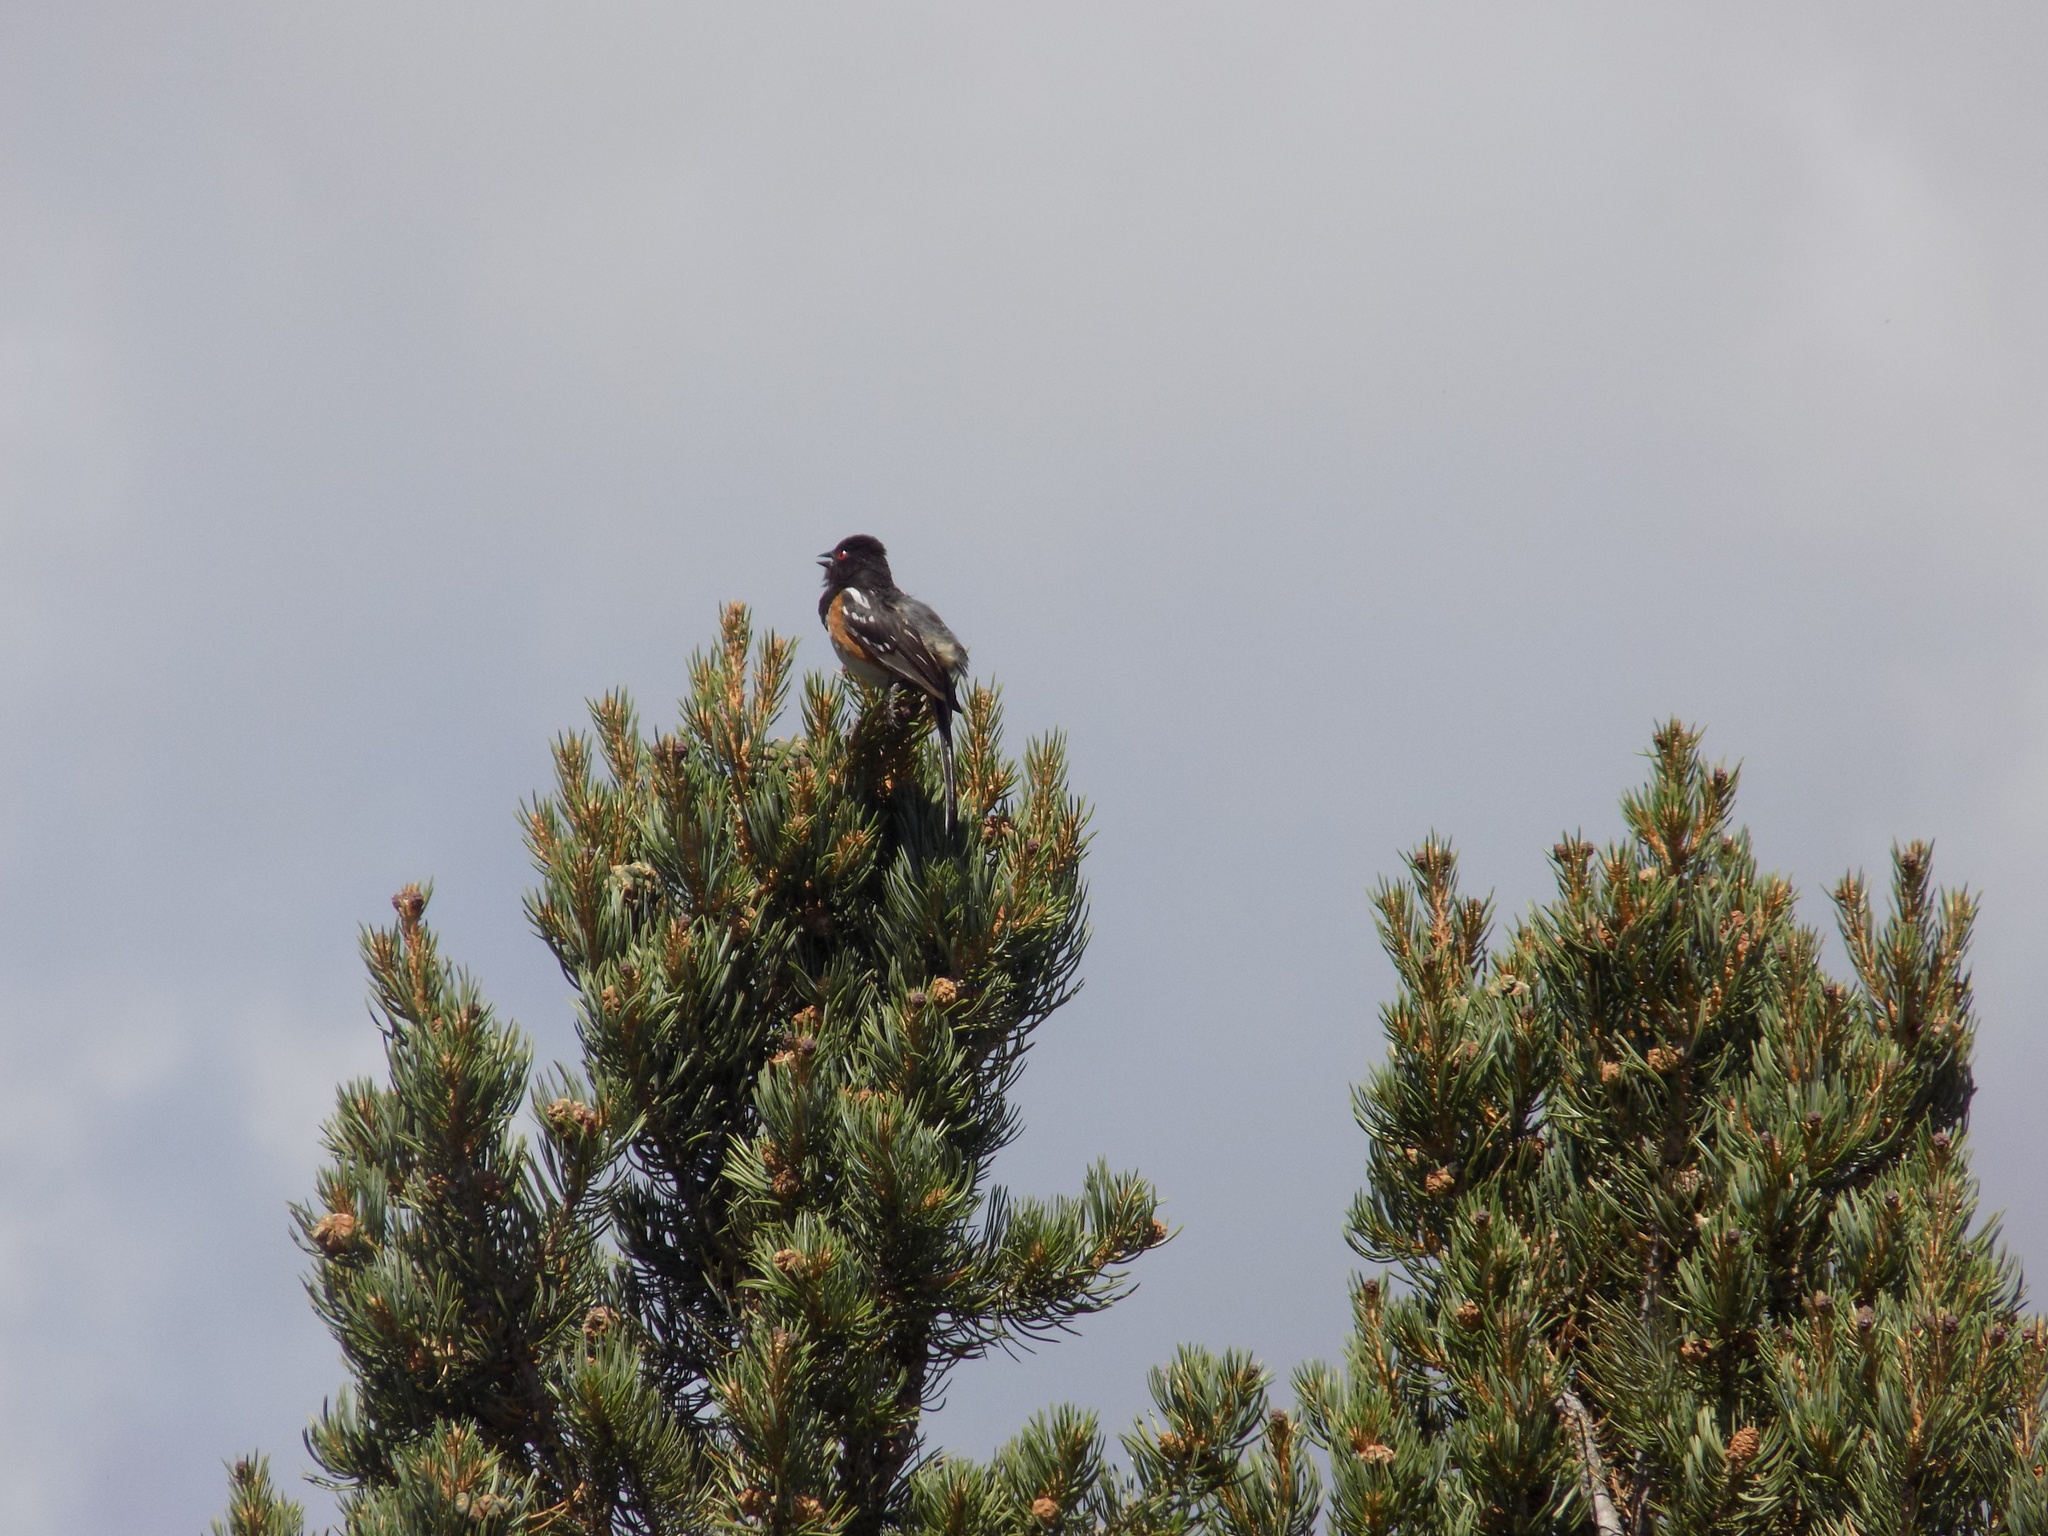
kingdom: Animalia
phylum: Chordata
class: Aves
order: Passeriformes
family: Passerellidae
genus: Pipilo
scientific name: Pipilo maculatus
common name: Spotted towhee
